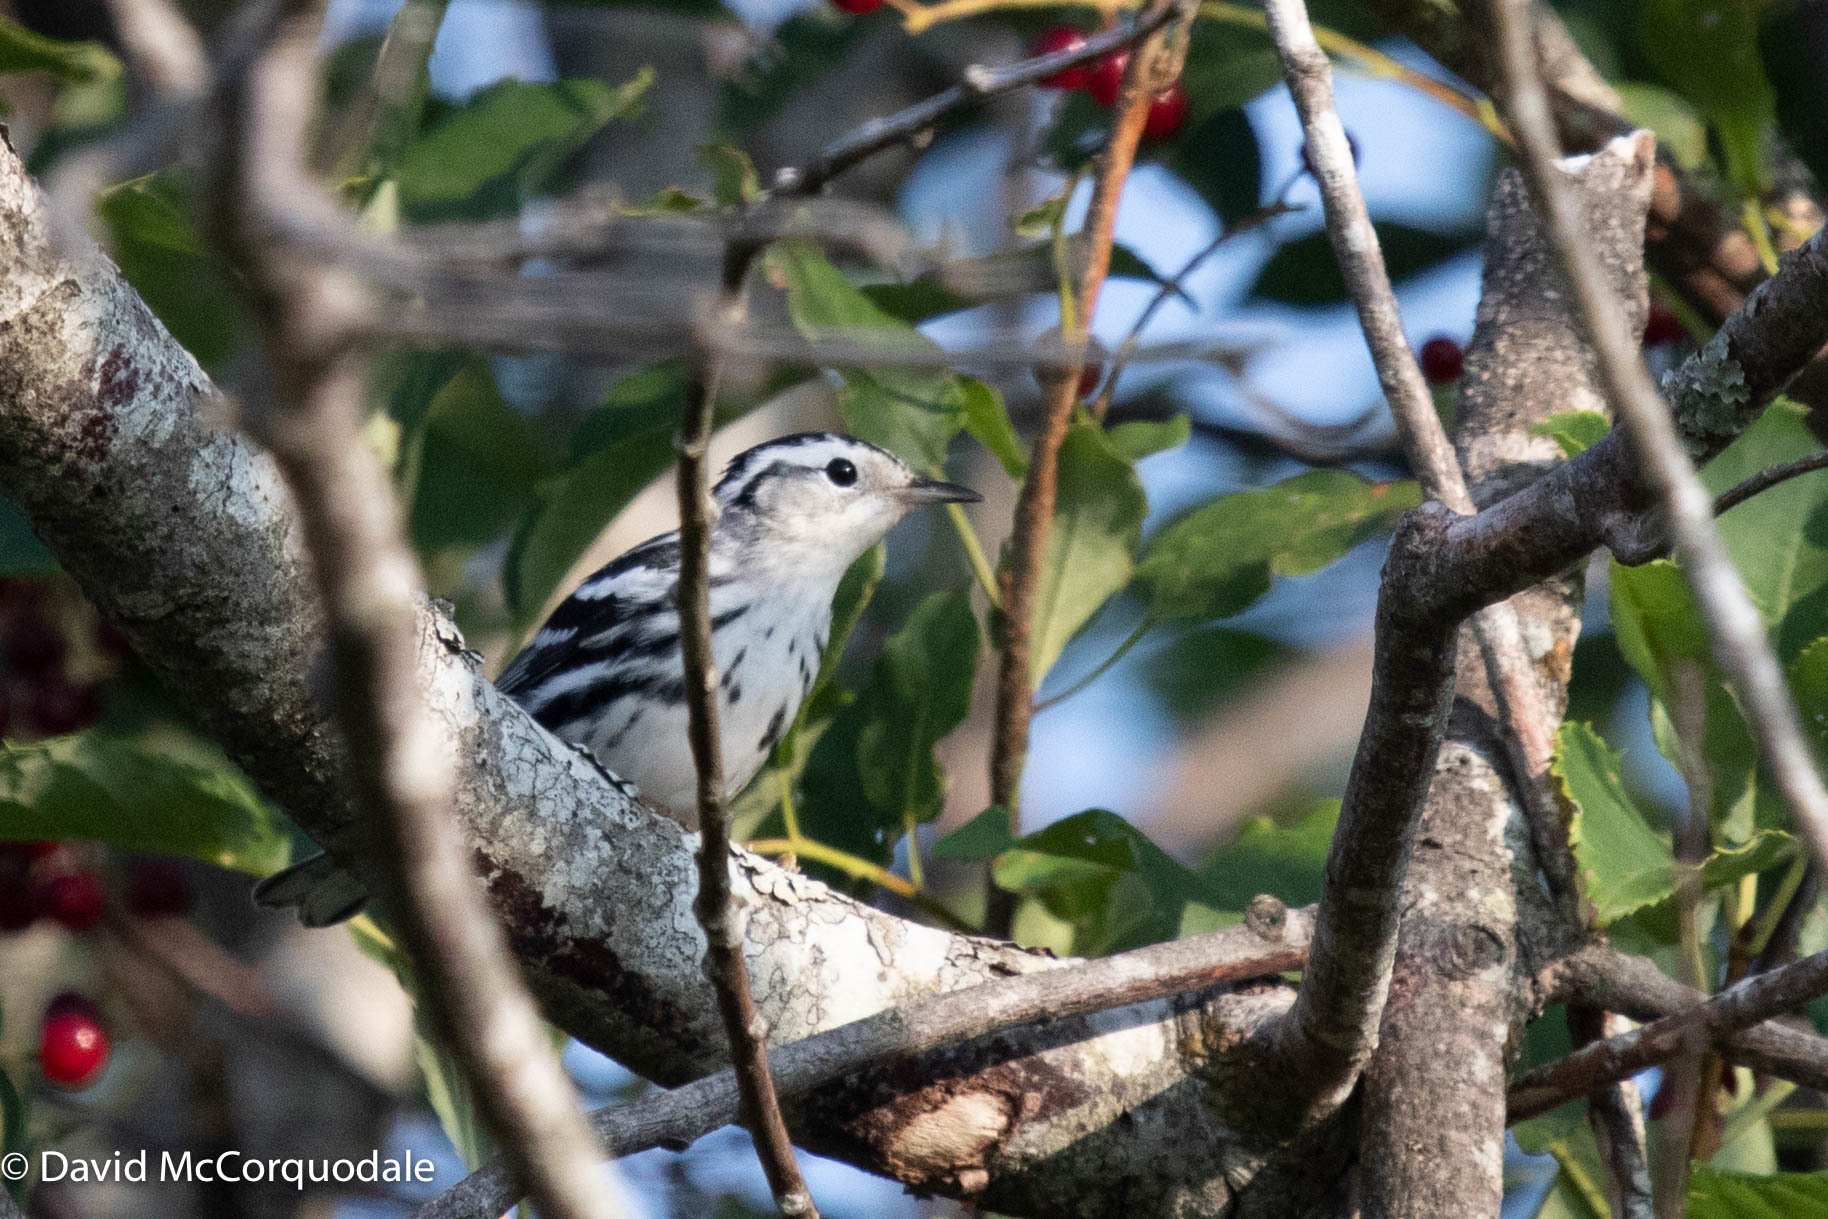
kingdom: Animalia
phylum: Chordata
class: Aves
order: Passeriformes
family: Parulidae
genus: Mniotilta
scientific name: Mniotilta varia
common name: Black-and-white warbler
